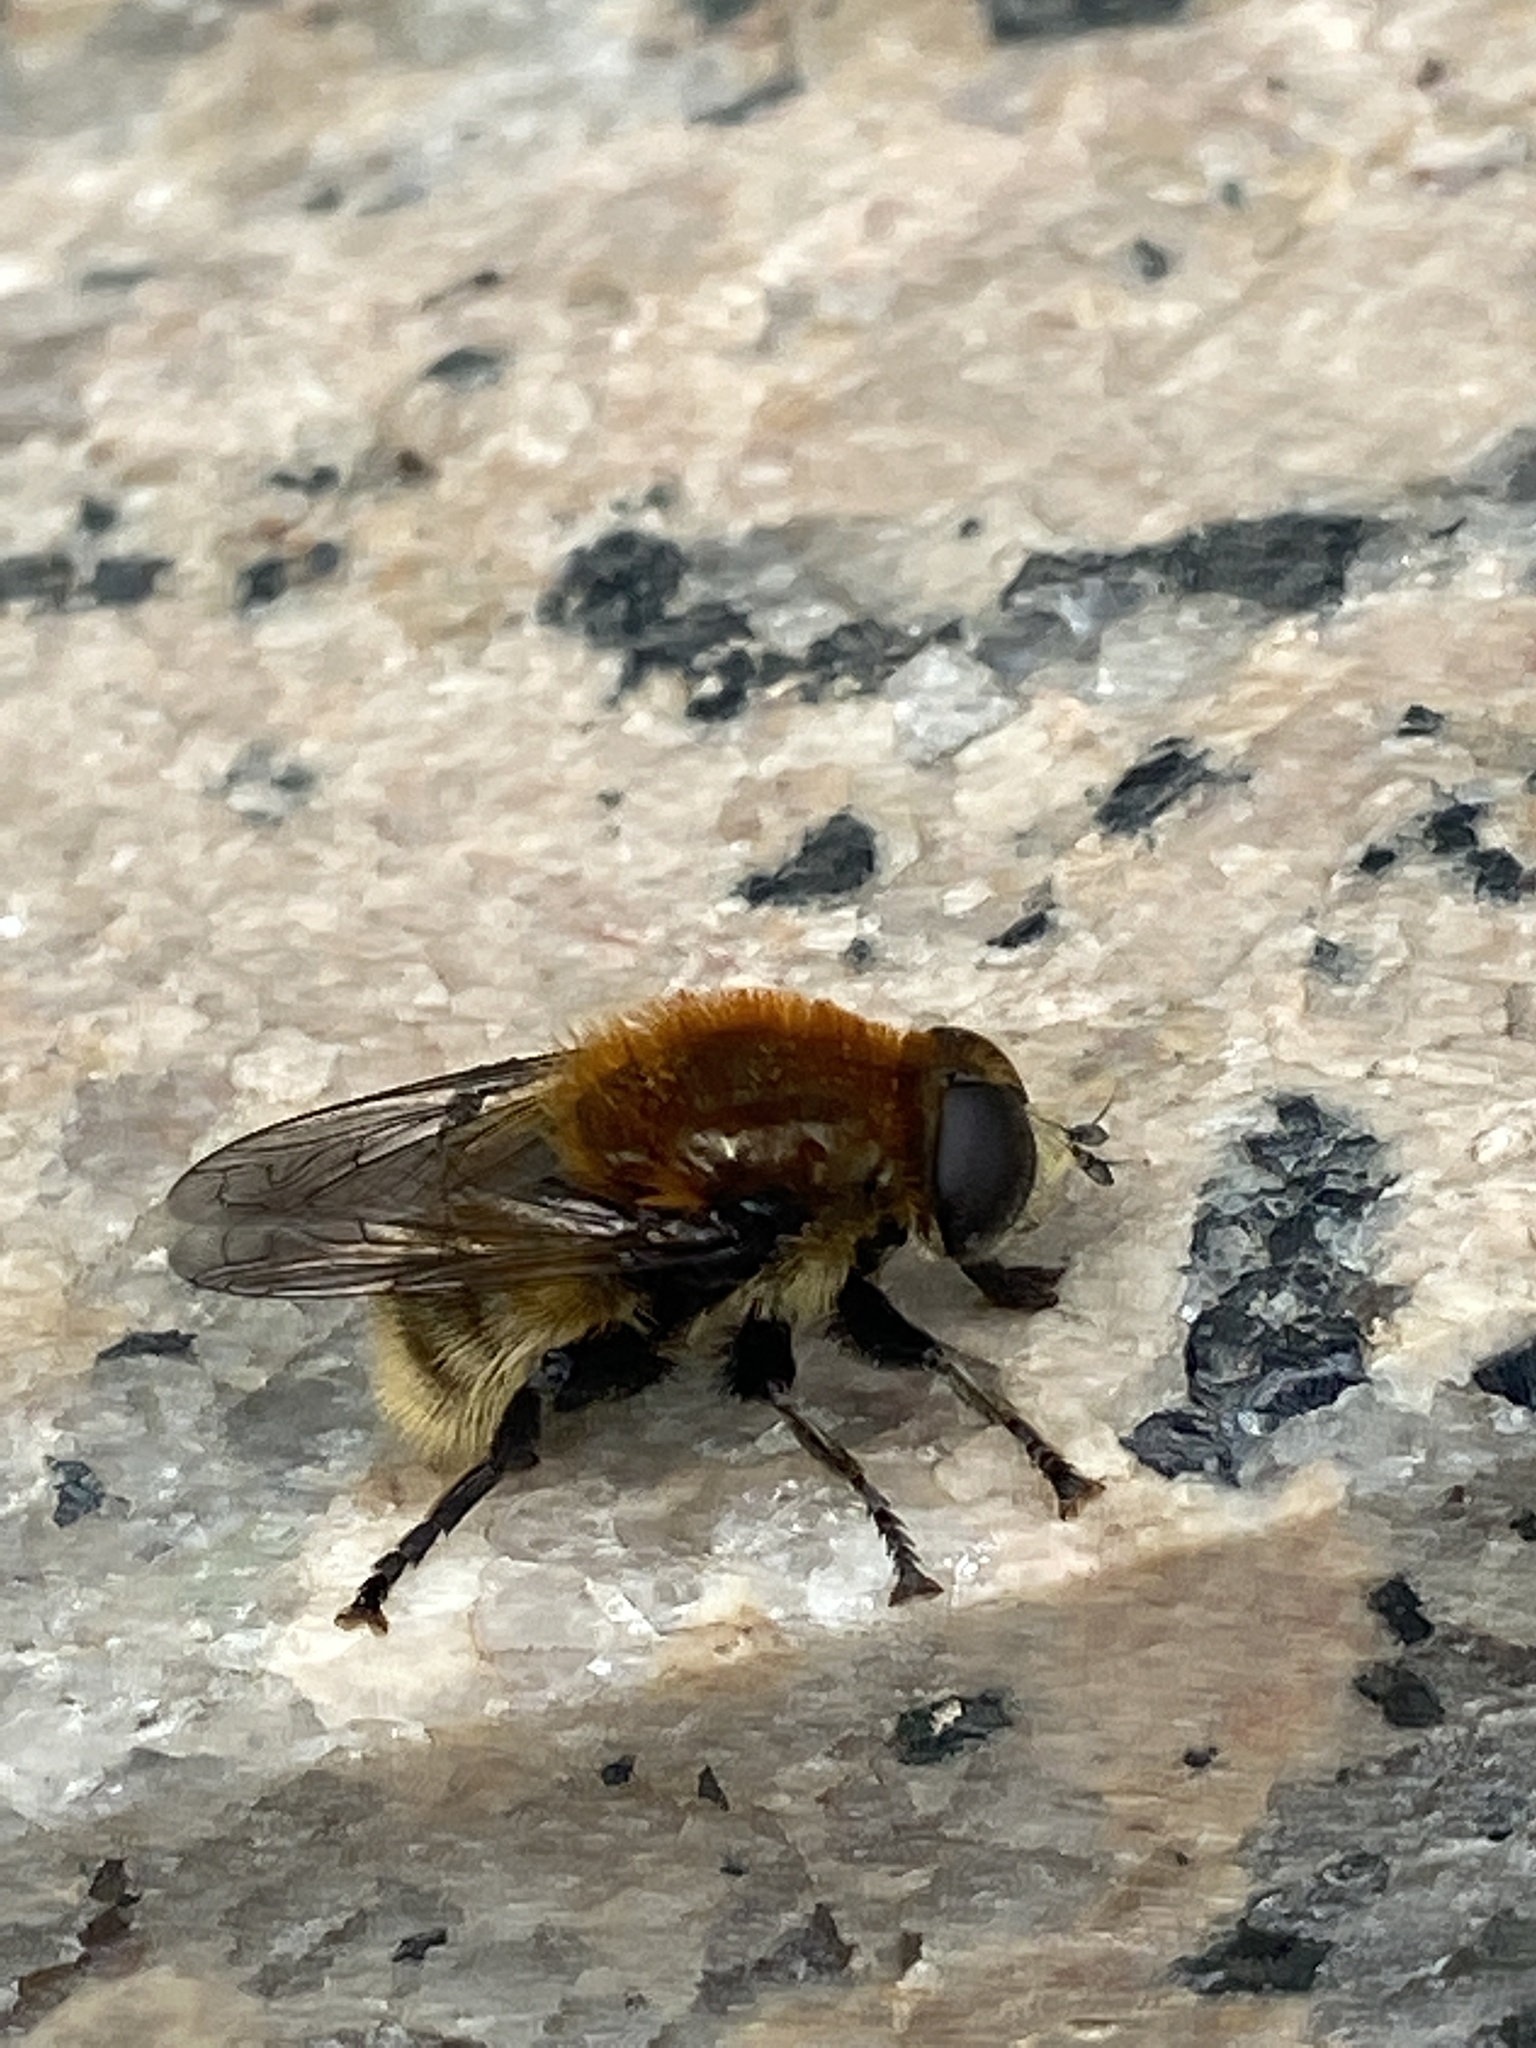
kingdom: Animalia
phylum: Arthropoda
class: Insecta
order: Diptera
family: Syrphidae
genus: Merodon
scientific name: Merodon equestris
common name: Greater bulb-fly
